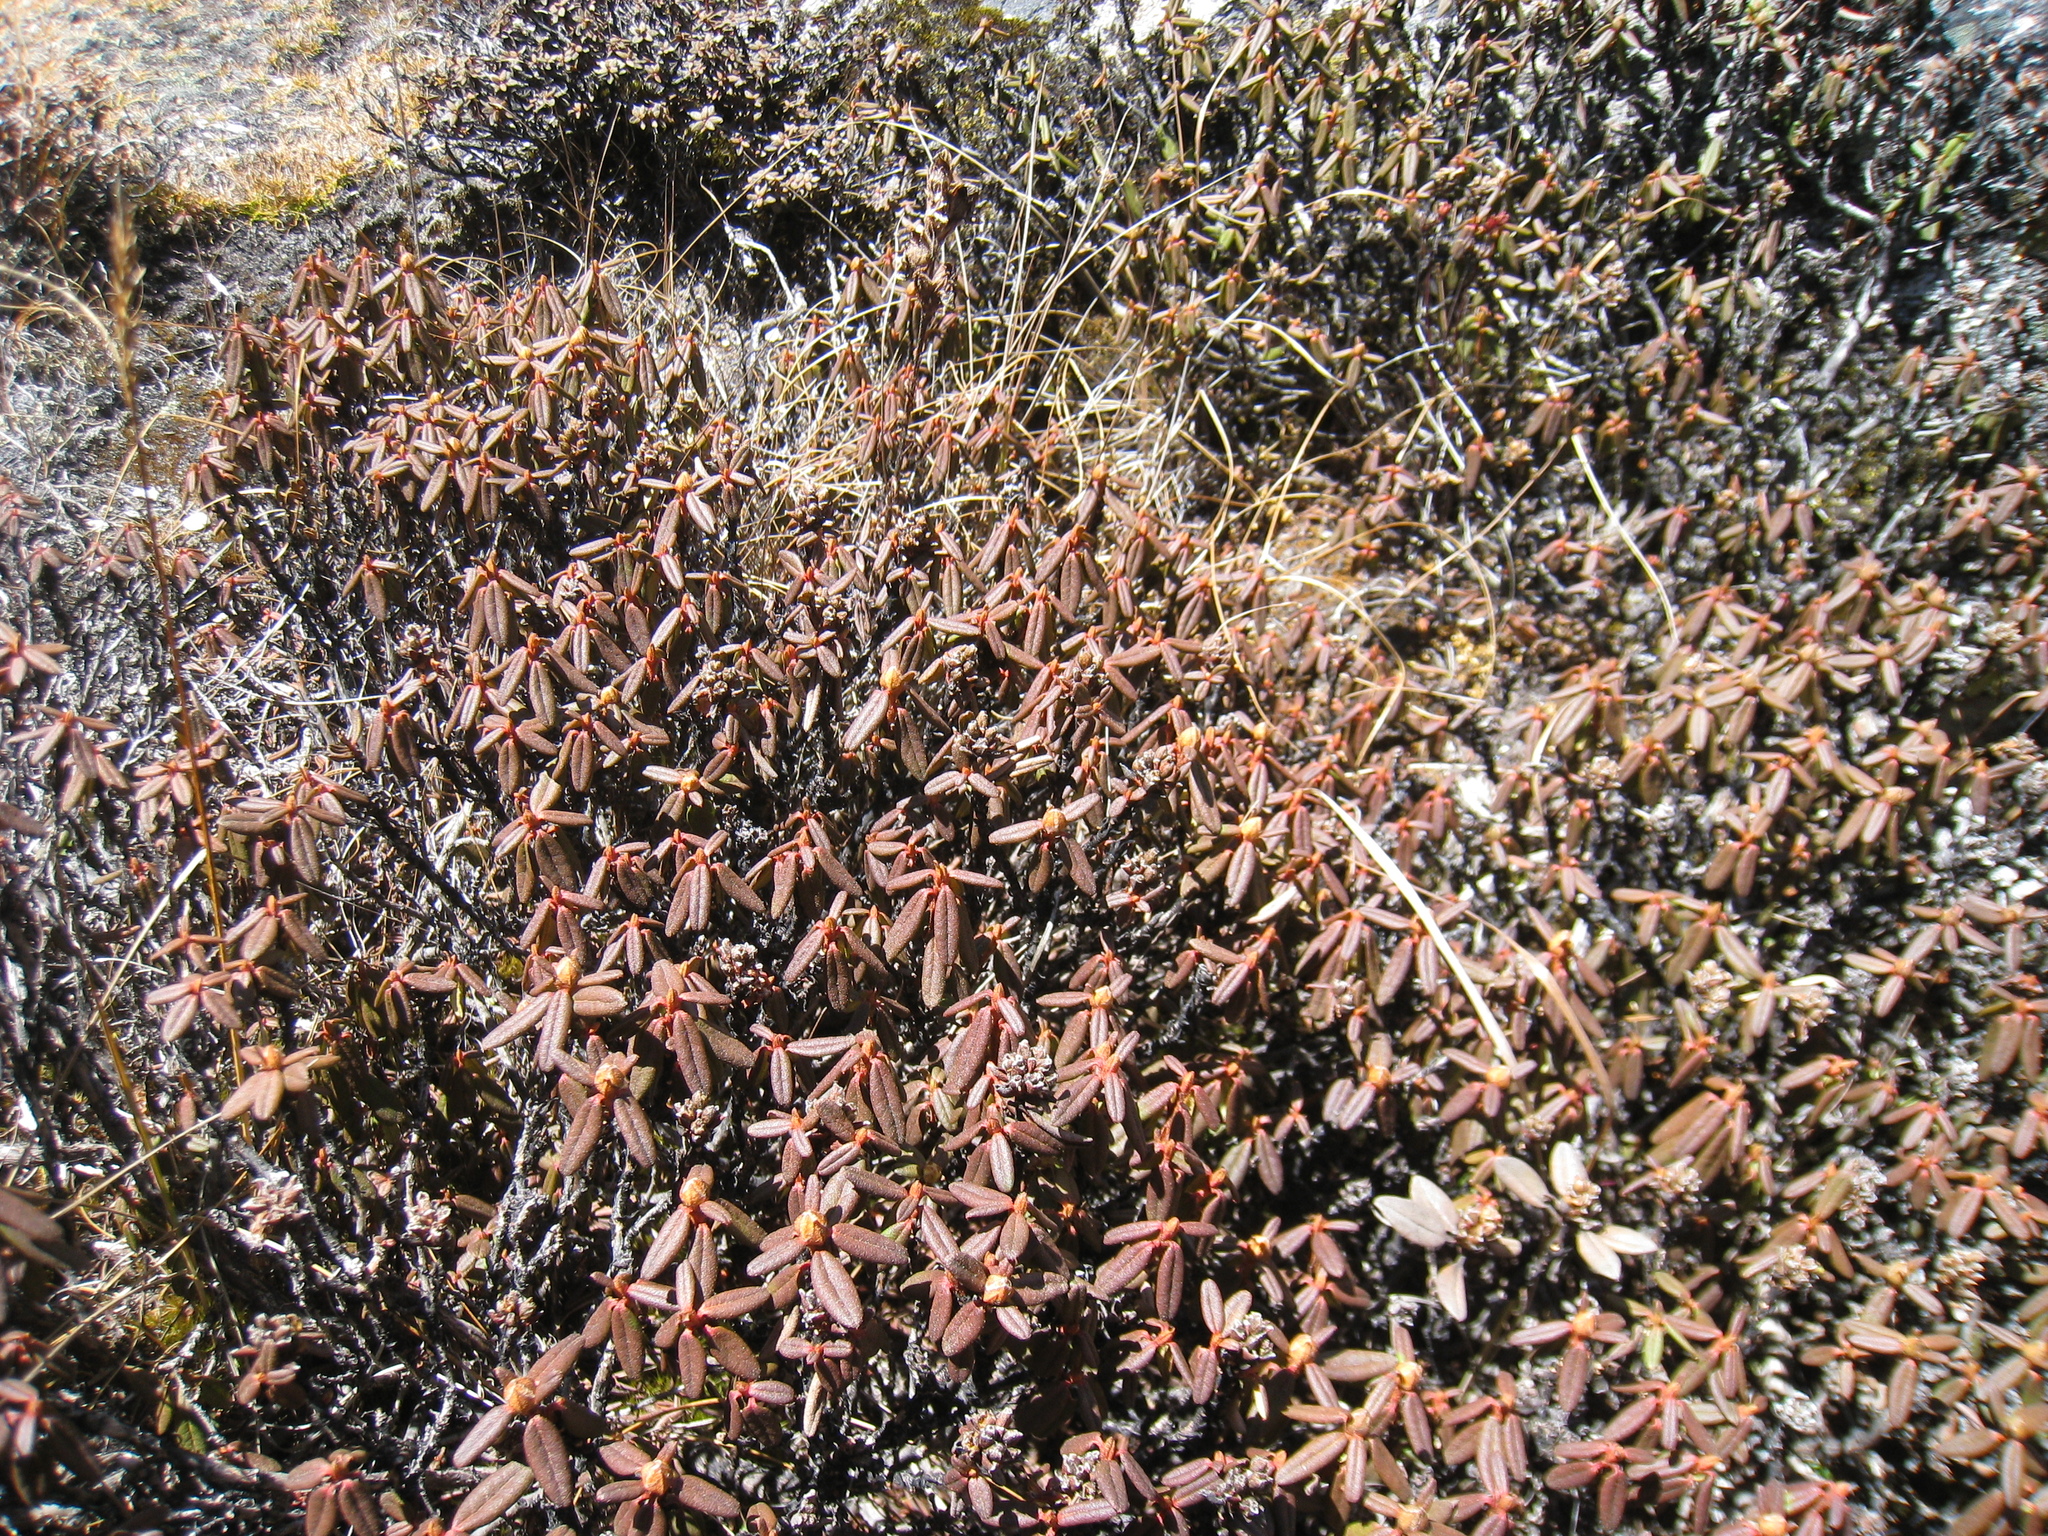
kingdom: Plantae
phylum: Tracheophyta
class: Magnoliopsida
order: Ericales
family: Ericaceae
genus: Rhododendron
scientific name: Rhododendron anthopogon
